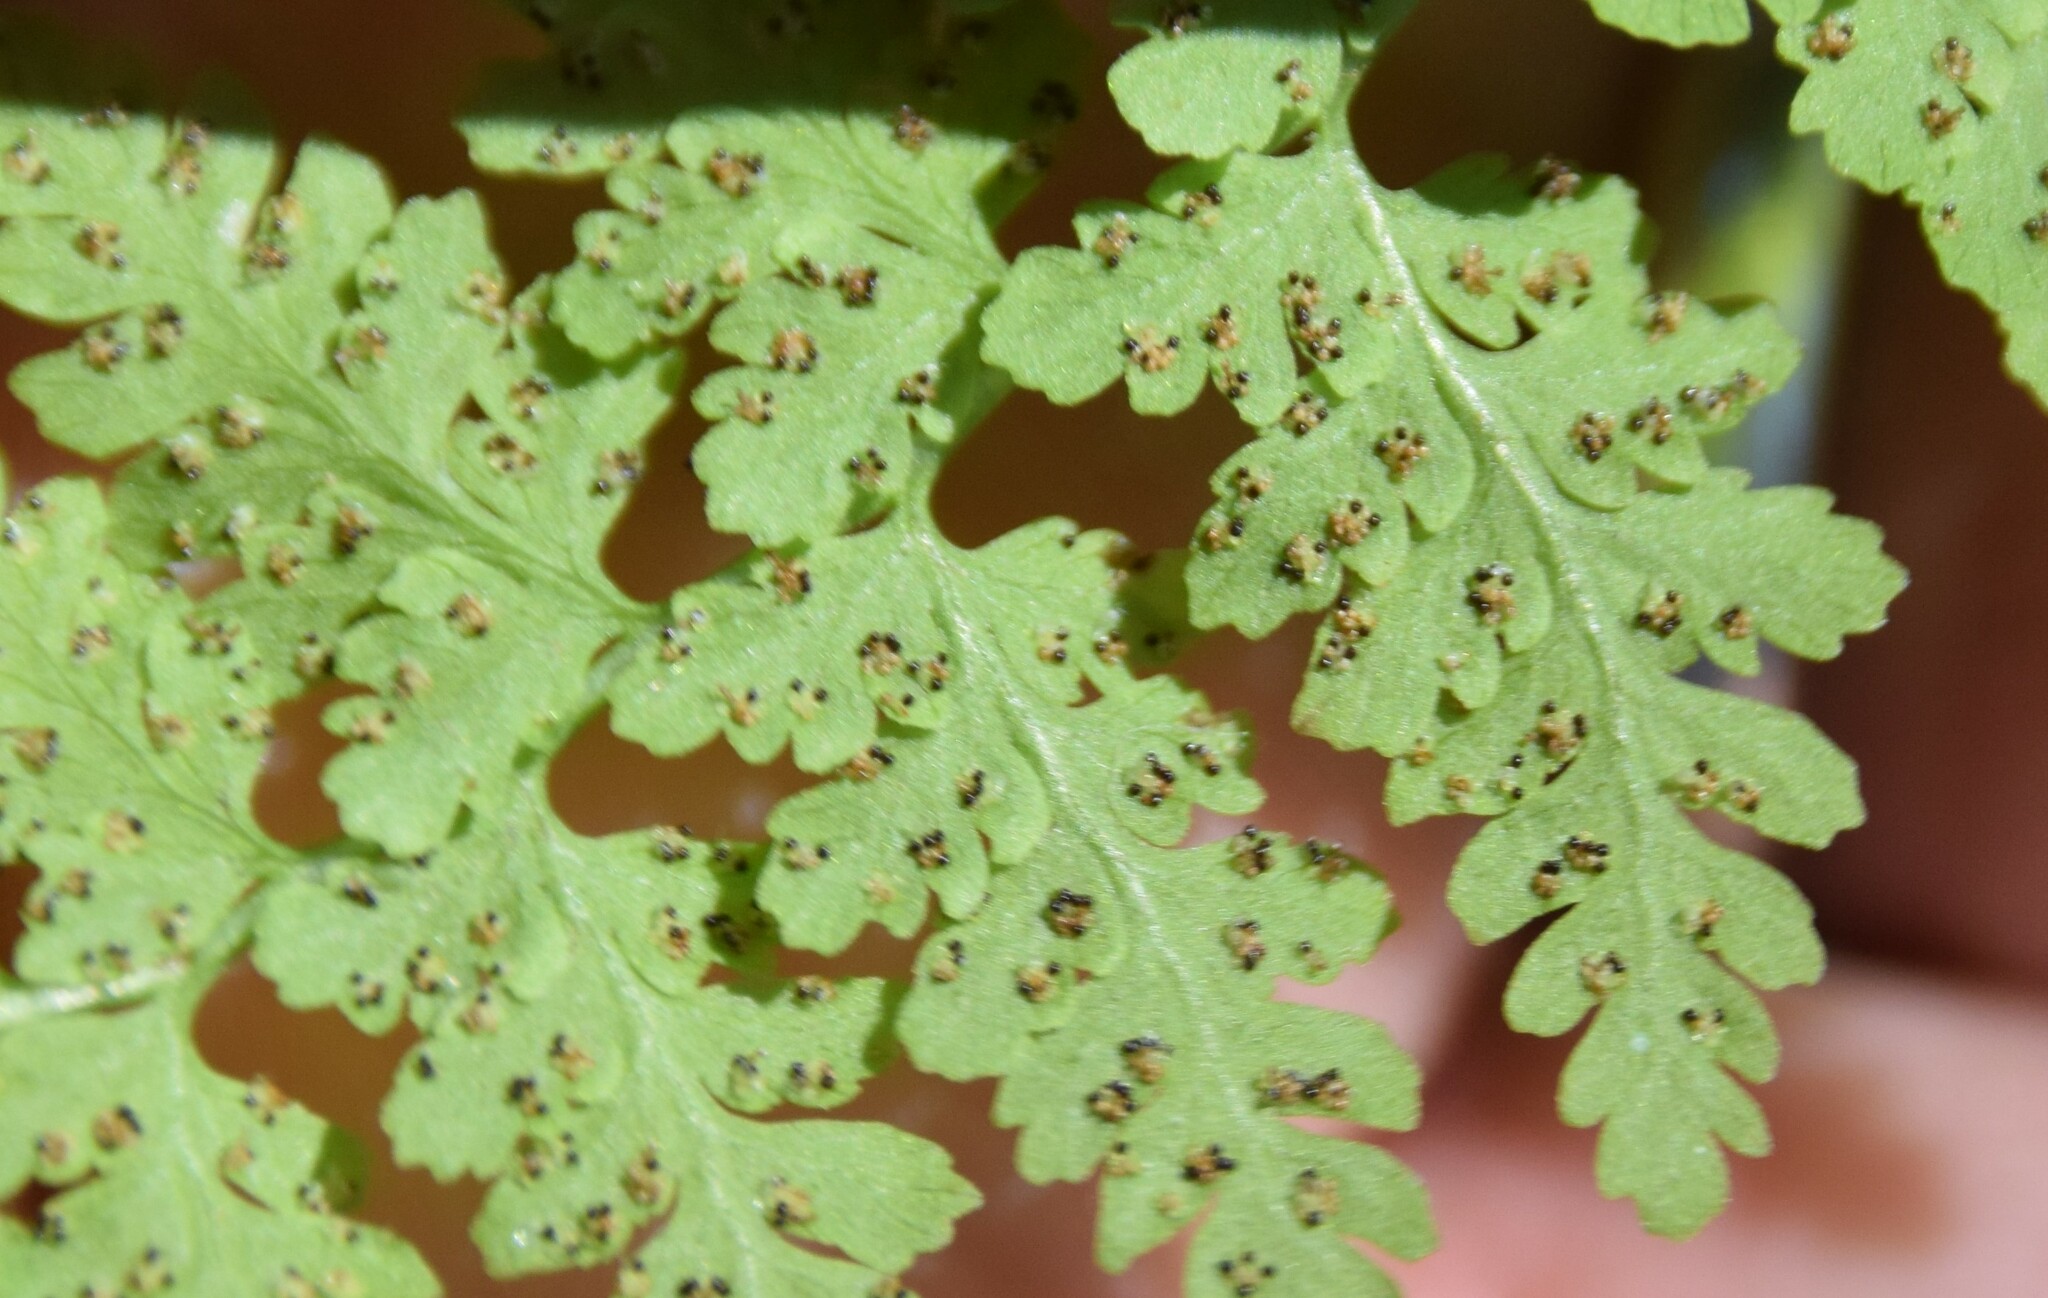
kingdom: Plantae
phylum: Tracheophyta
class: Polypodiopsida
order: Polypodiales
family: Cystopteridaceae
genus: Cystopteris
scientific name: Cystopteris fragilis
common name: Brittle bladder fern
